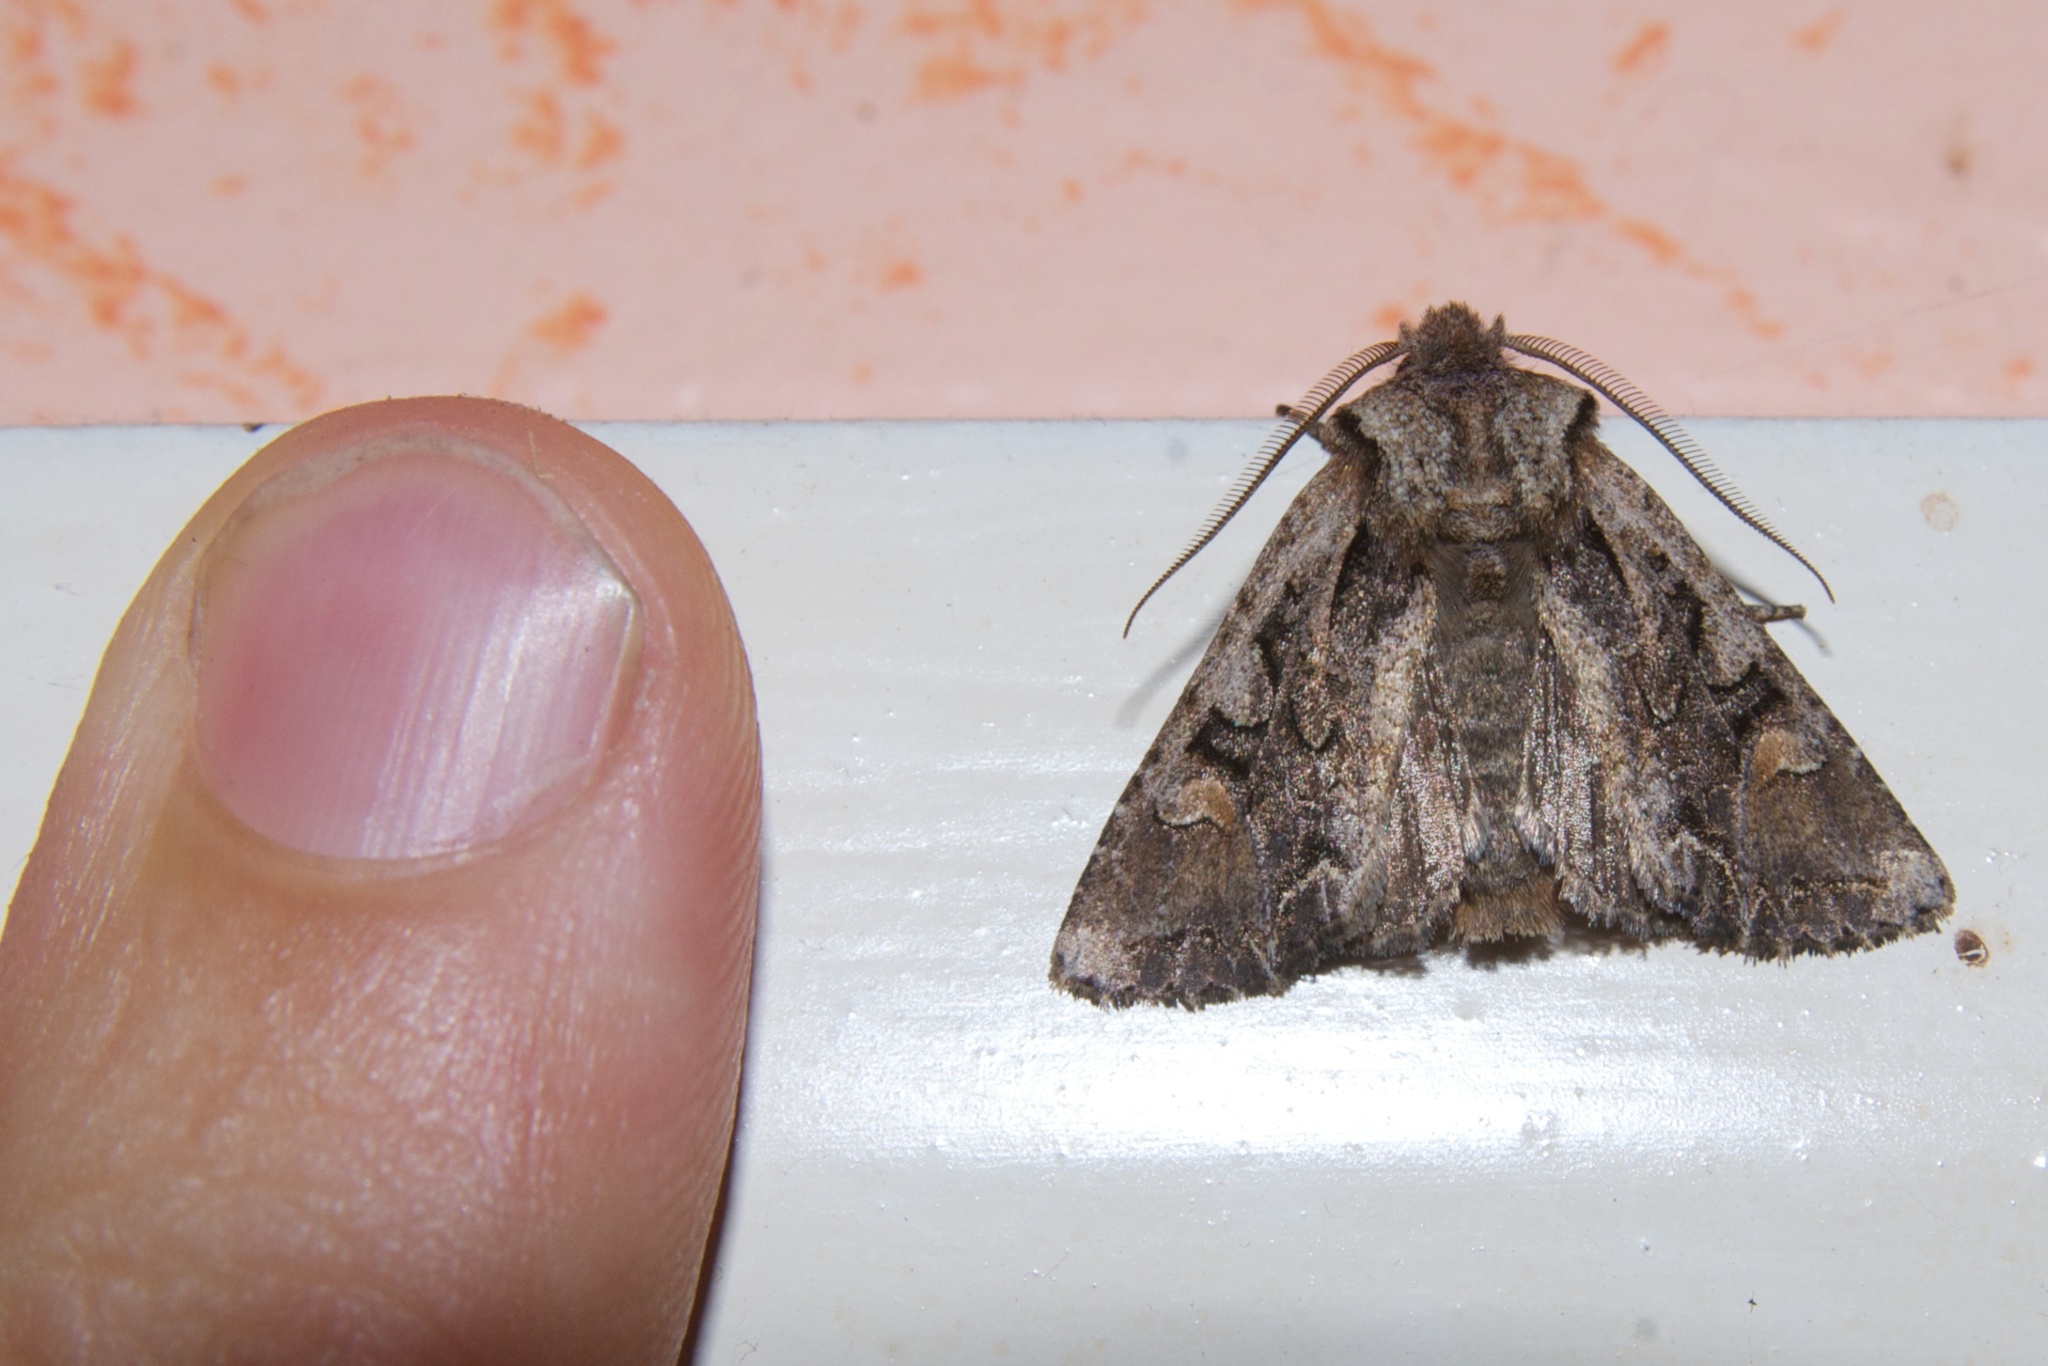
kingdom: Animalia
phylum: Arthropoda
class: Insecta
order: Lepidoptera
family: Noctuidae
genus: Ichneutica
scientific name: Ichneutica insignis
